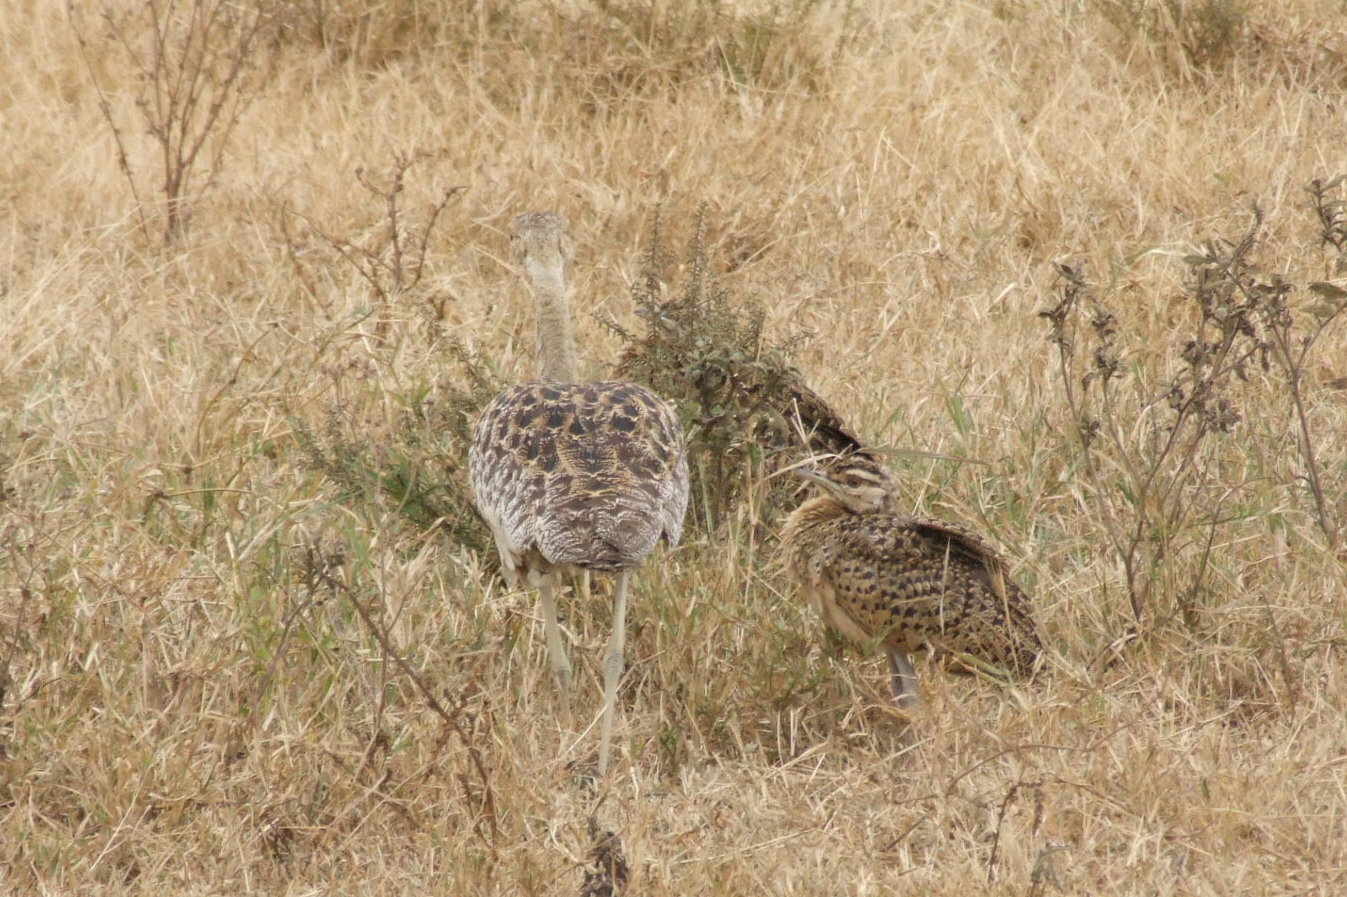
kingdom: Animalia
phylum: Chordata
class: Aves
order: Otidiformes
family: Otididae
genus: Lissotis
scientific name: Lissotis melanogaster
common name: Black-bellied bustard
